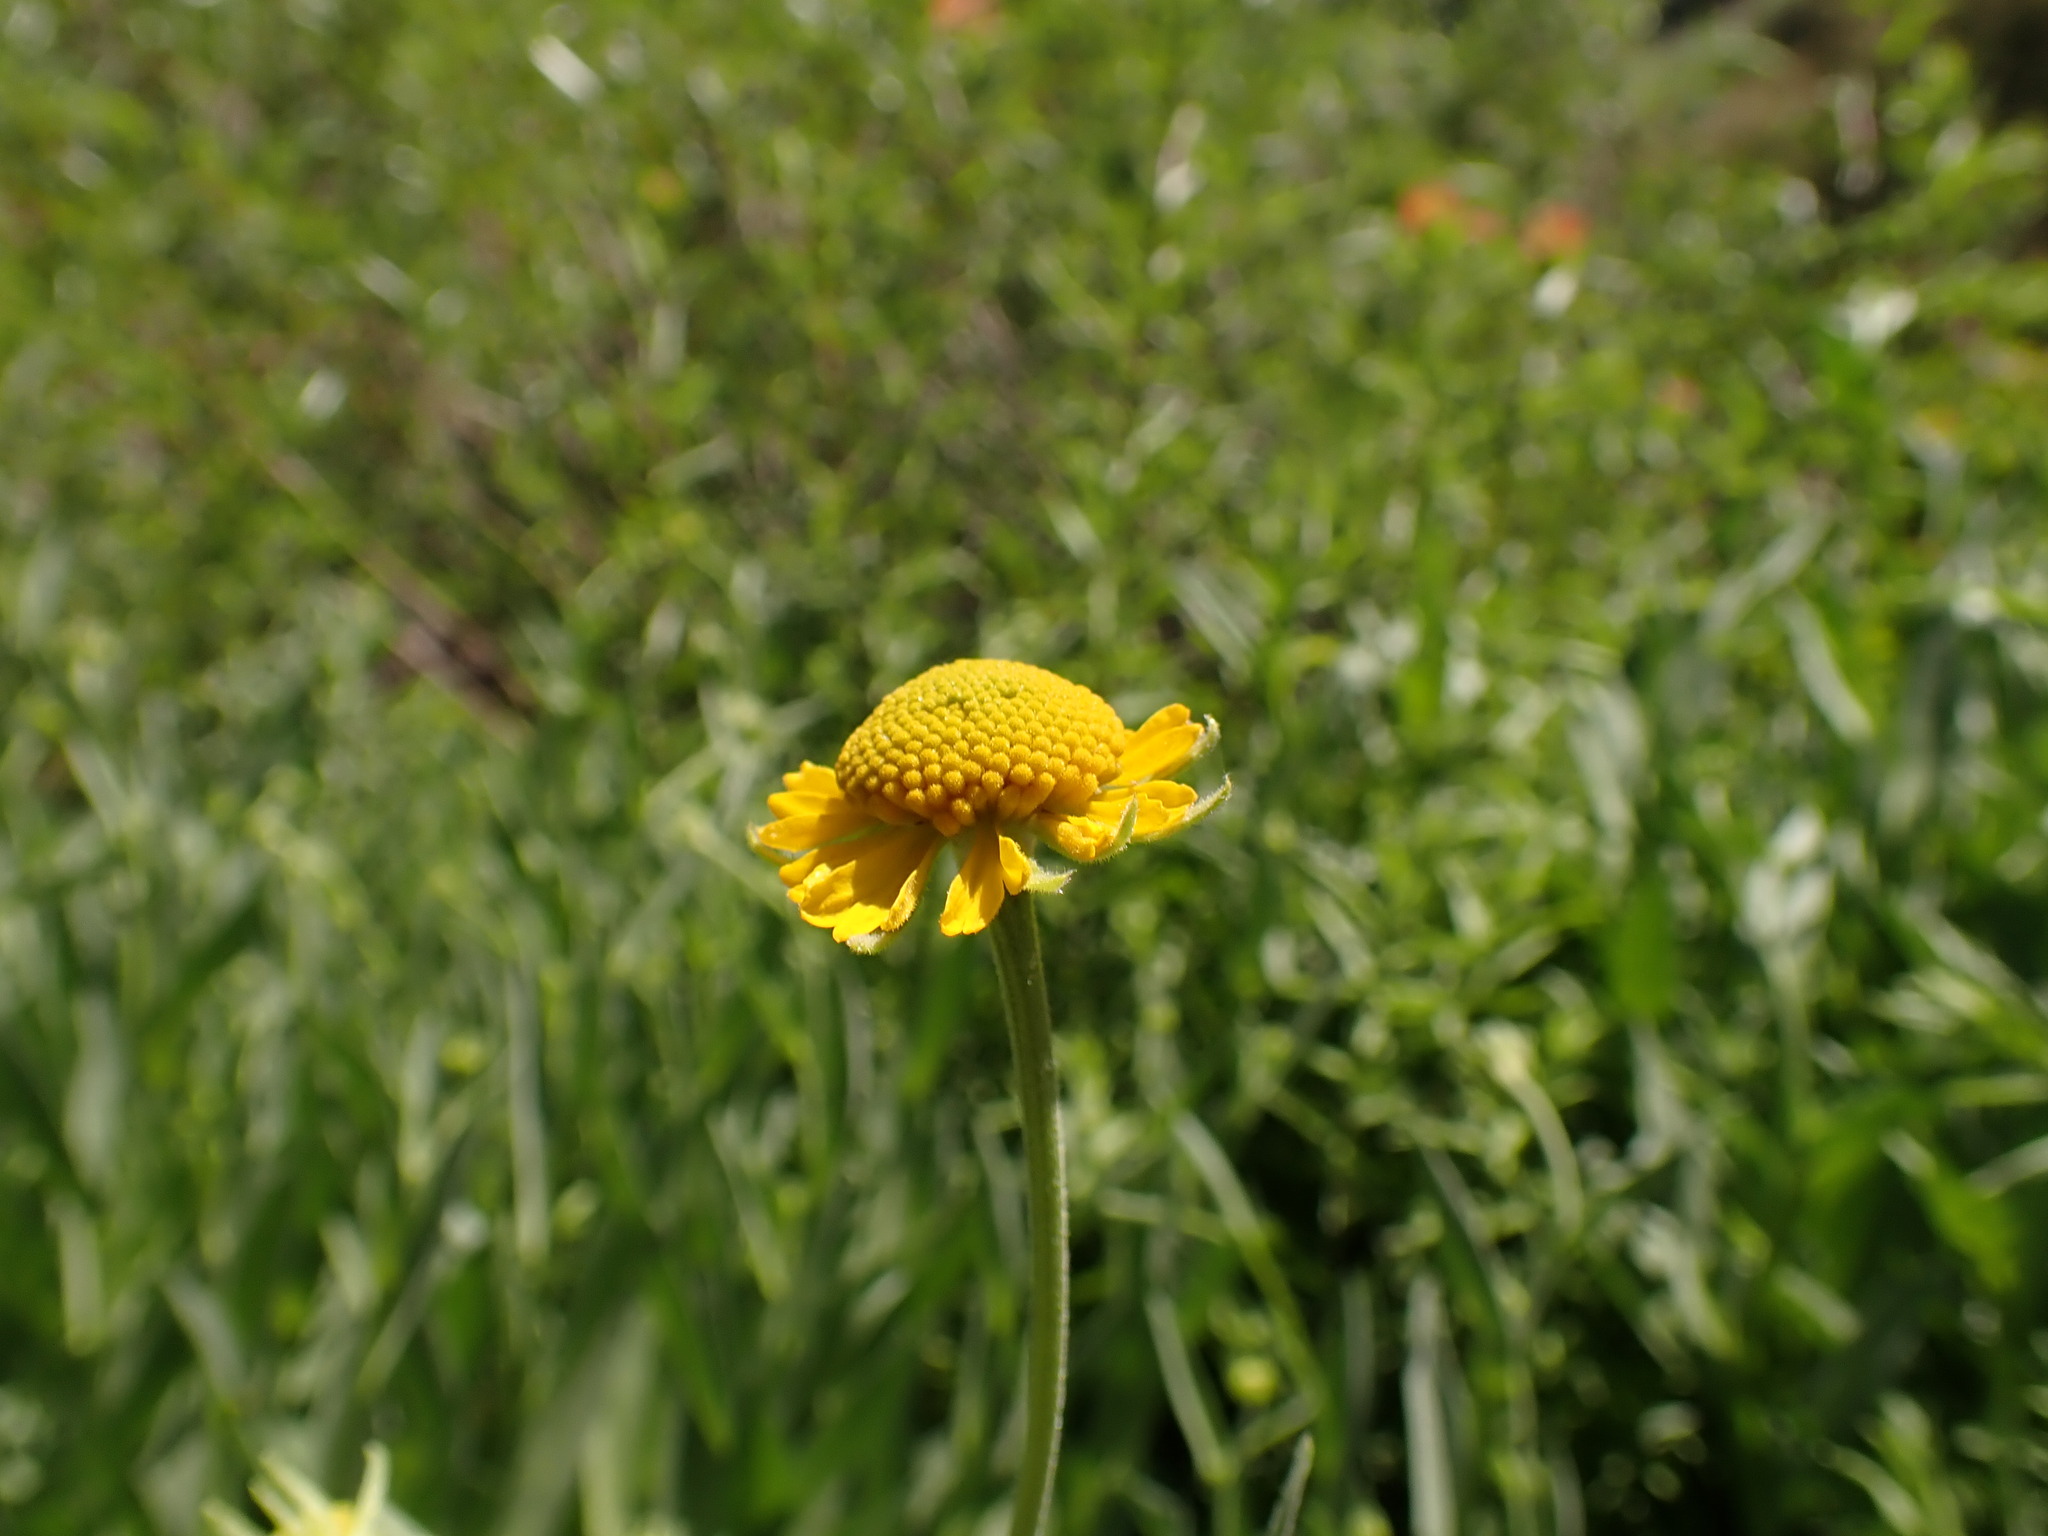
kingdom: Plantae
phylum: Tracheophyta
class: Magnoliopsida
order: Asterales
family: Asteraceae
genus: Helenium
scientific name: Helenium bigelovii
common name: Bigelow's sneezeweed
